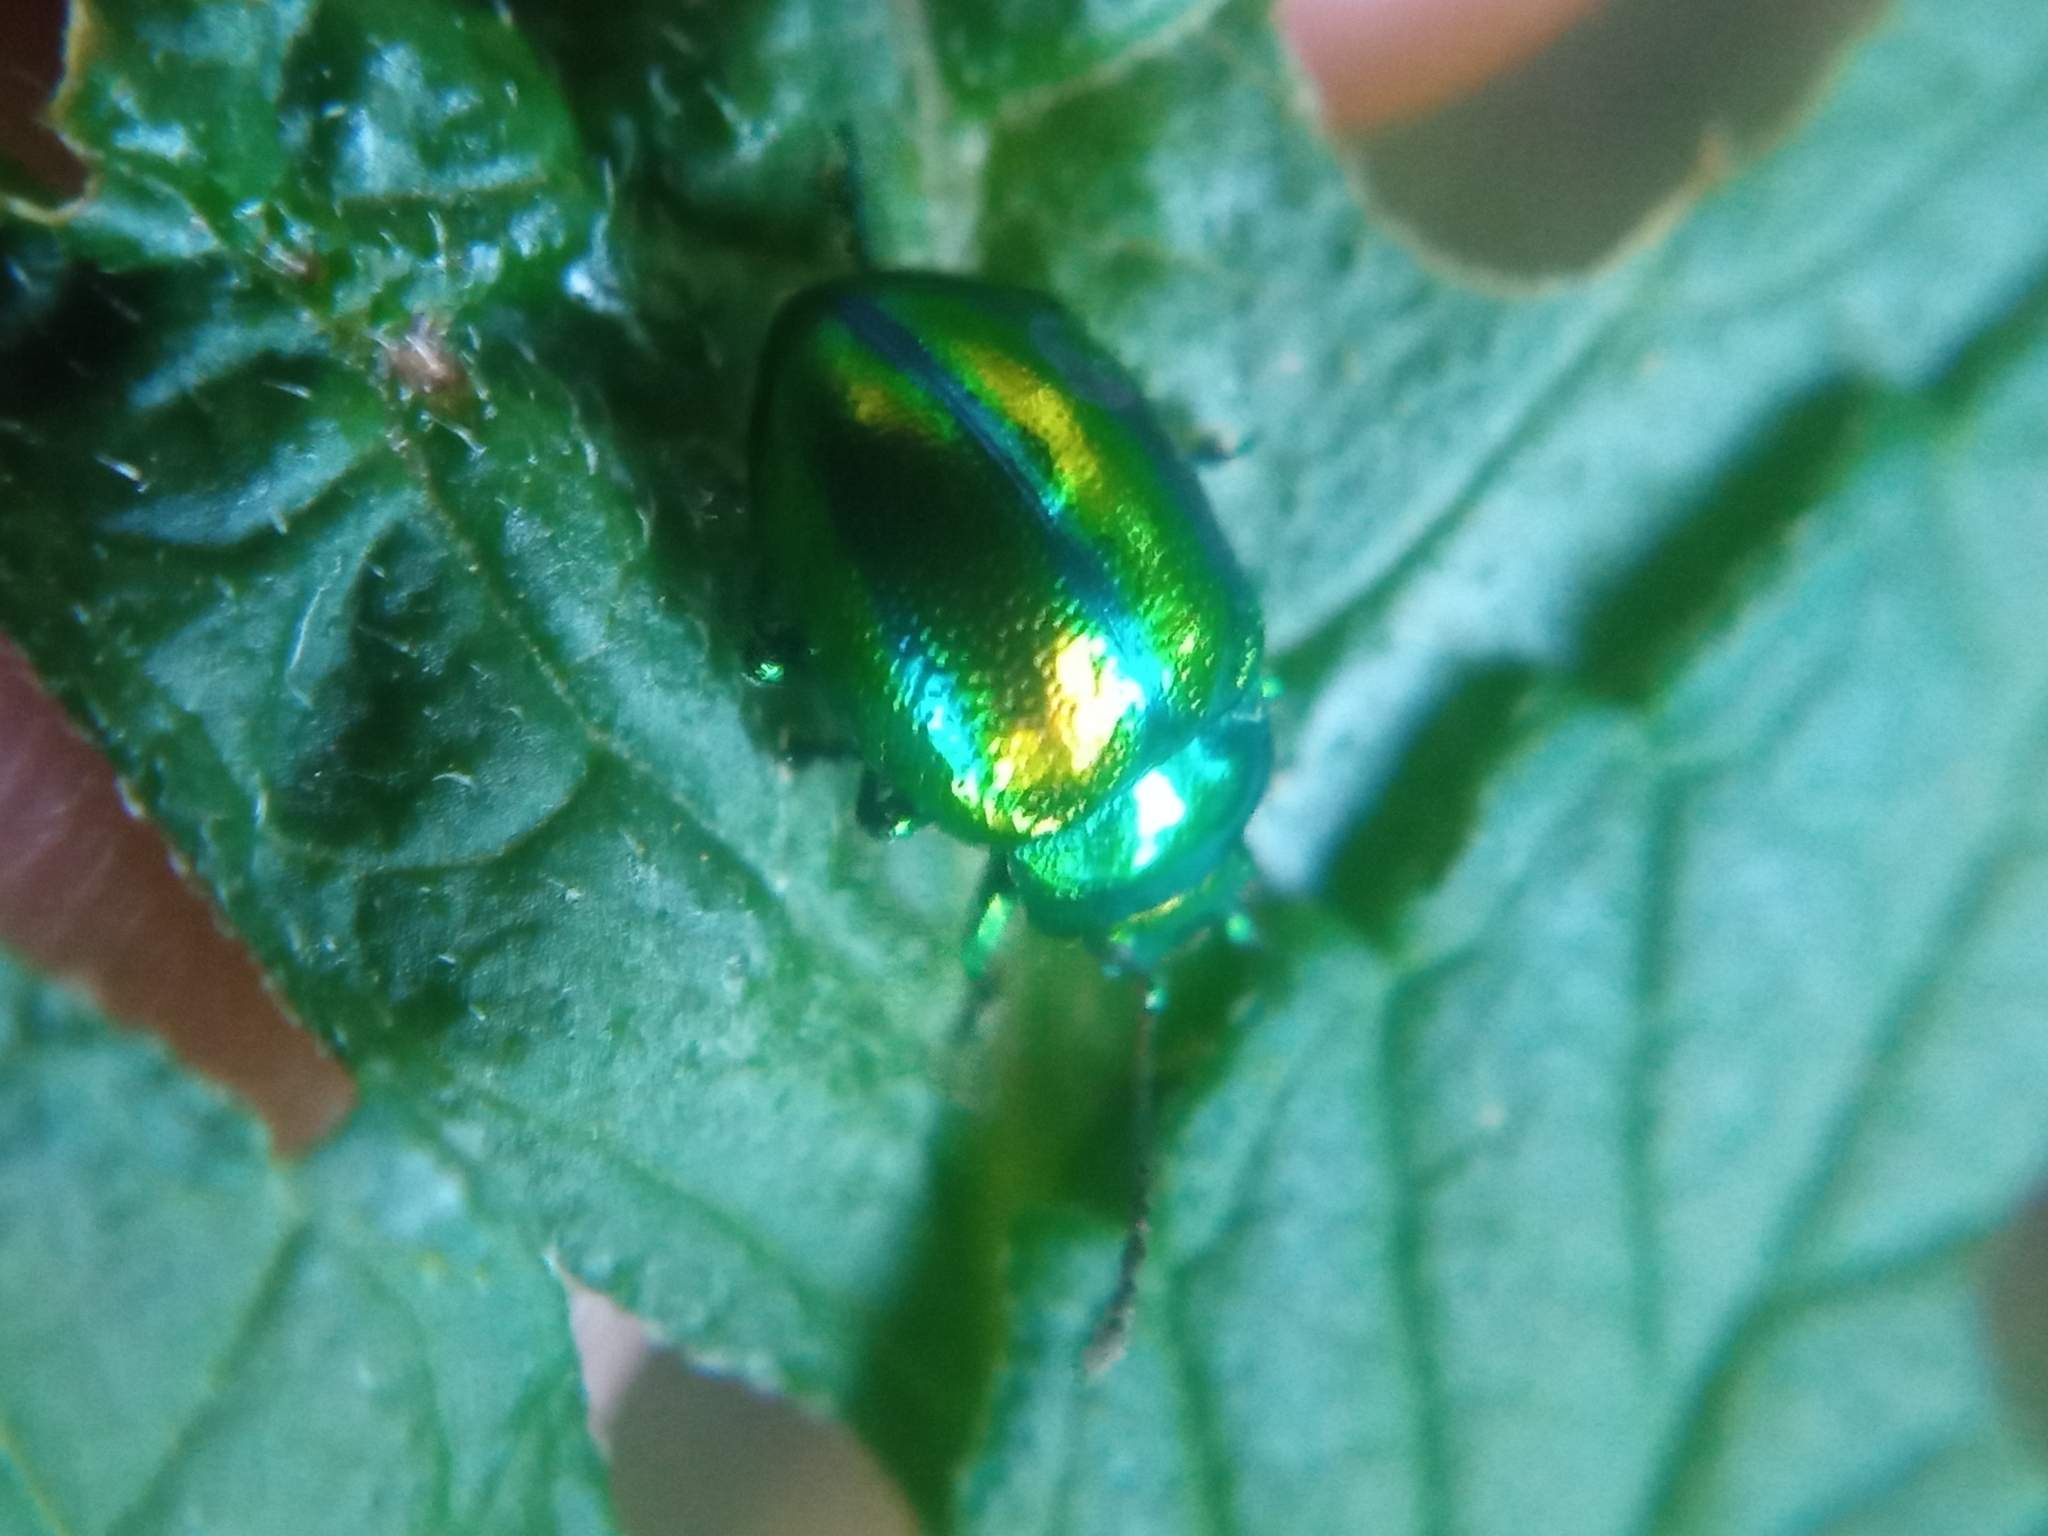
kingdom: Animalia
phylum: Arthropoda
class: Insecta
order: Coleoptera
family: Chrysomelidae
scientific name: Chrysomelidae
